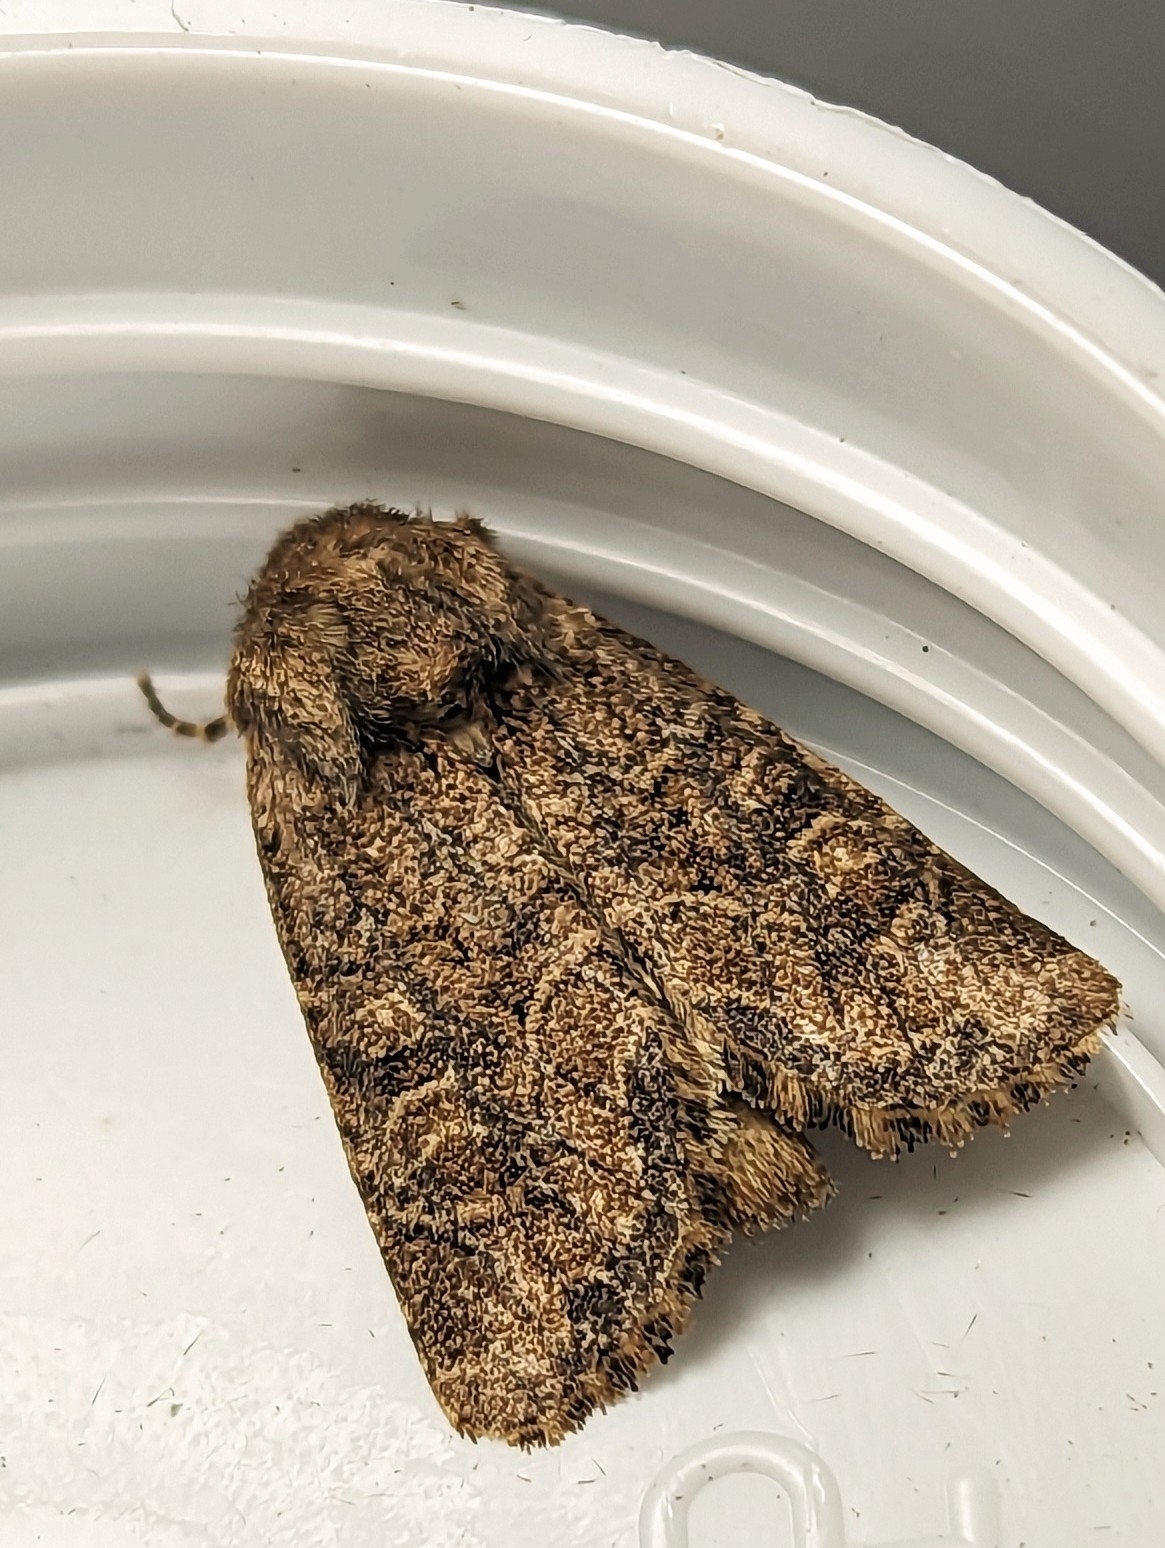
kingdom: Animalia
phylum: Arthropoda
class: Insecta
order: Lepidoptera
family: Noctuidae
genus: Luperina
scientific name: Luperina testacea
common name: Flounced rustic
